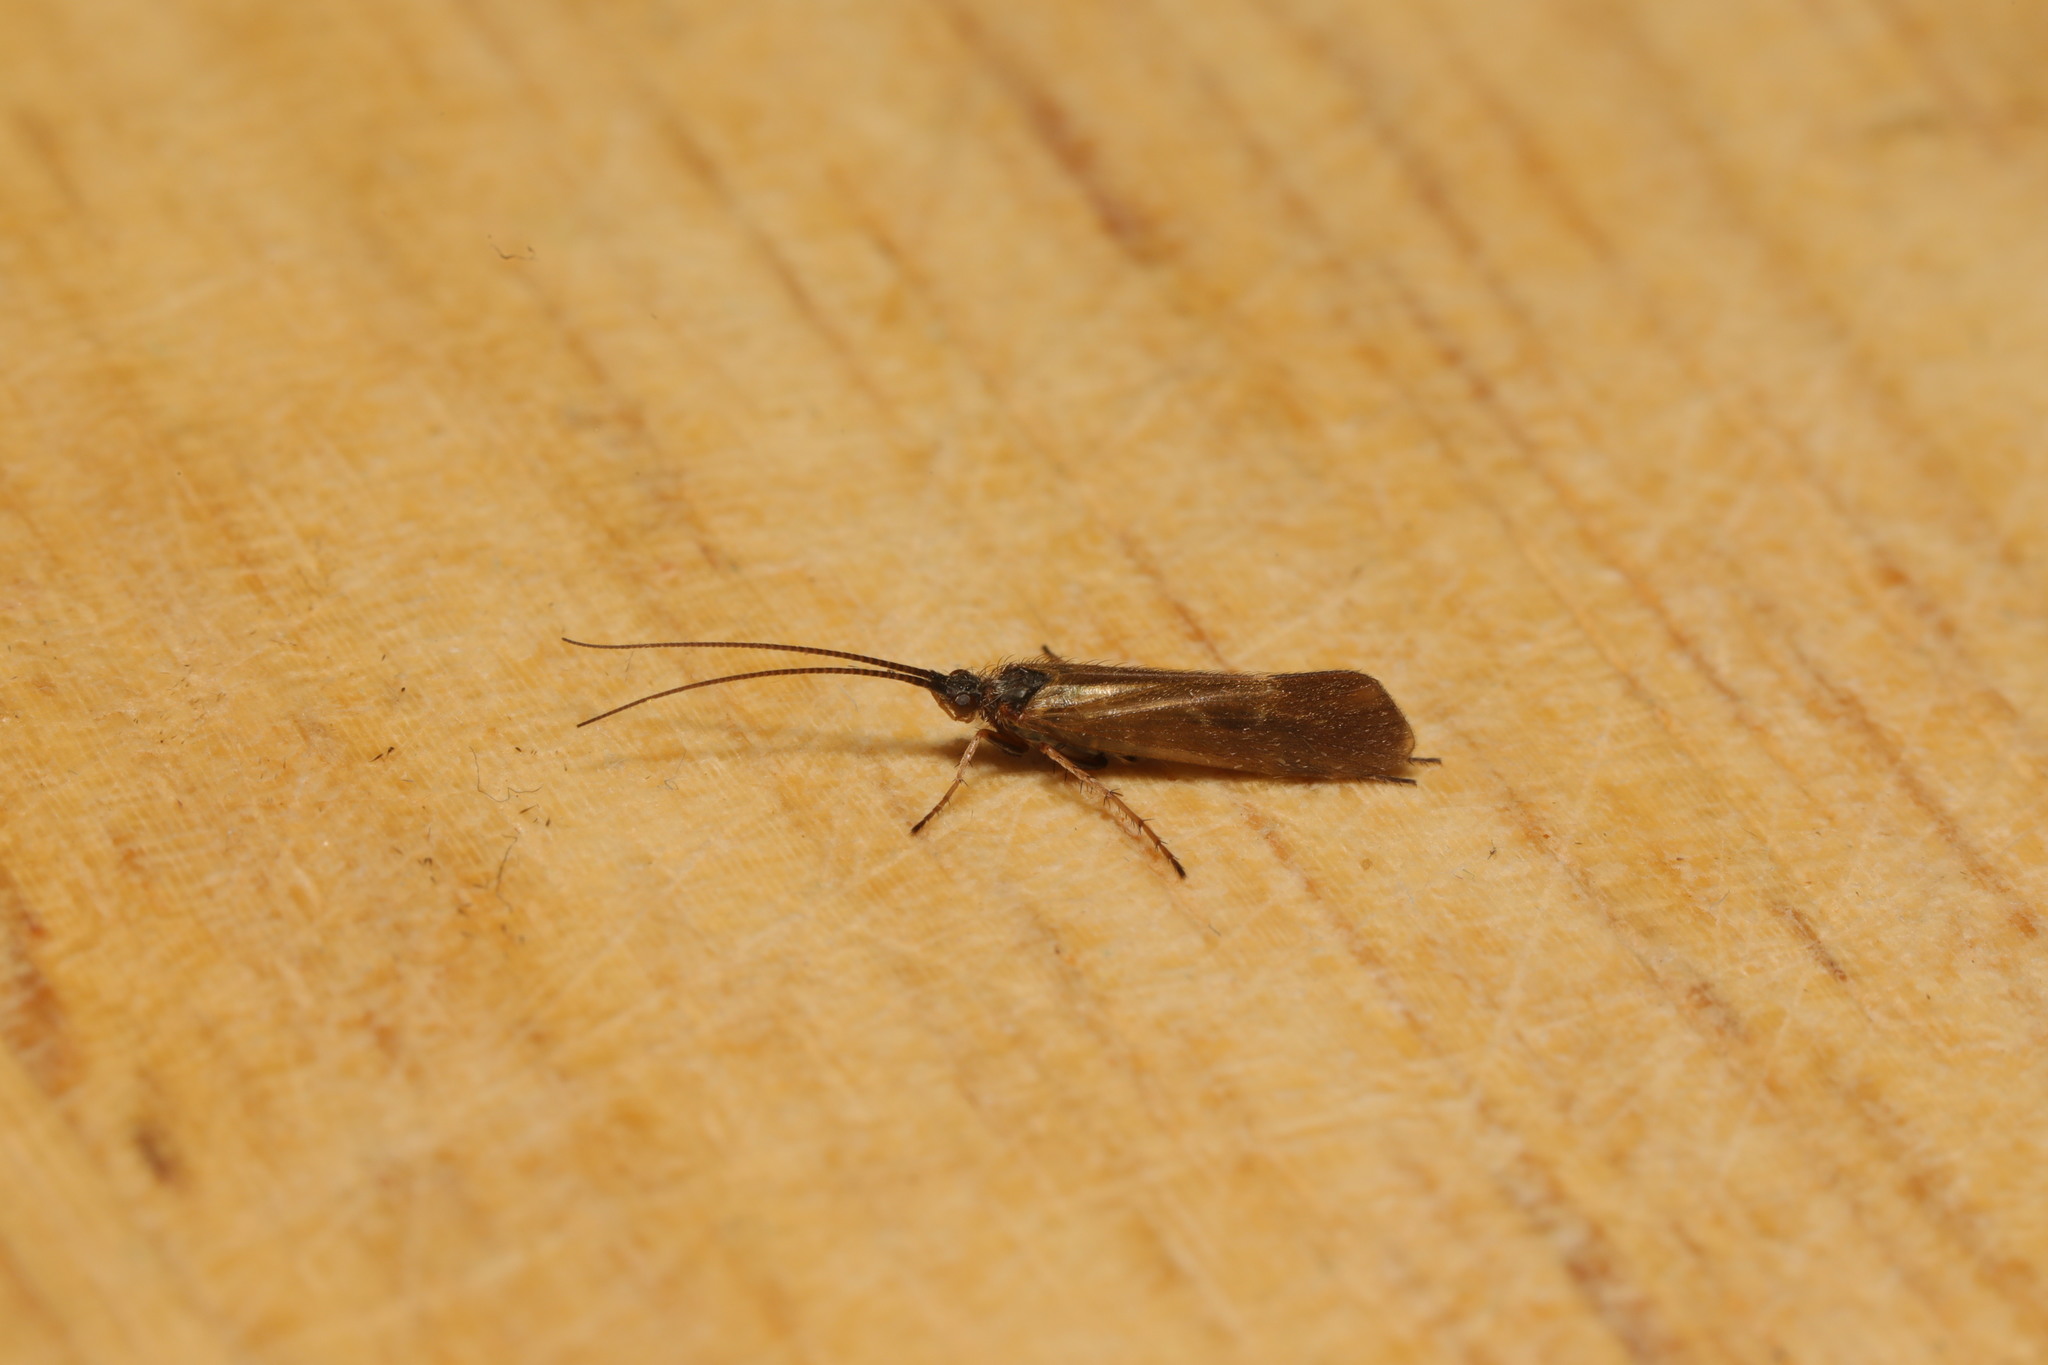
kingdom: Animalia
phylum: Arthropoda
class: Insecta
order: Trichoptera
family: Limnephilidae
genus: Limnephilus
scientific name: Limnephilus auricula
